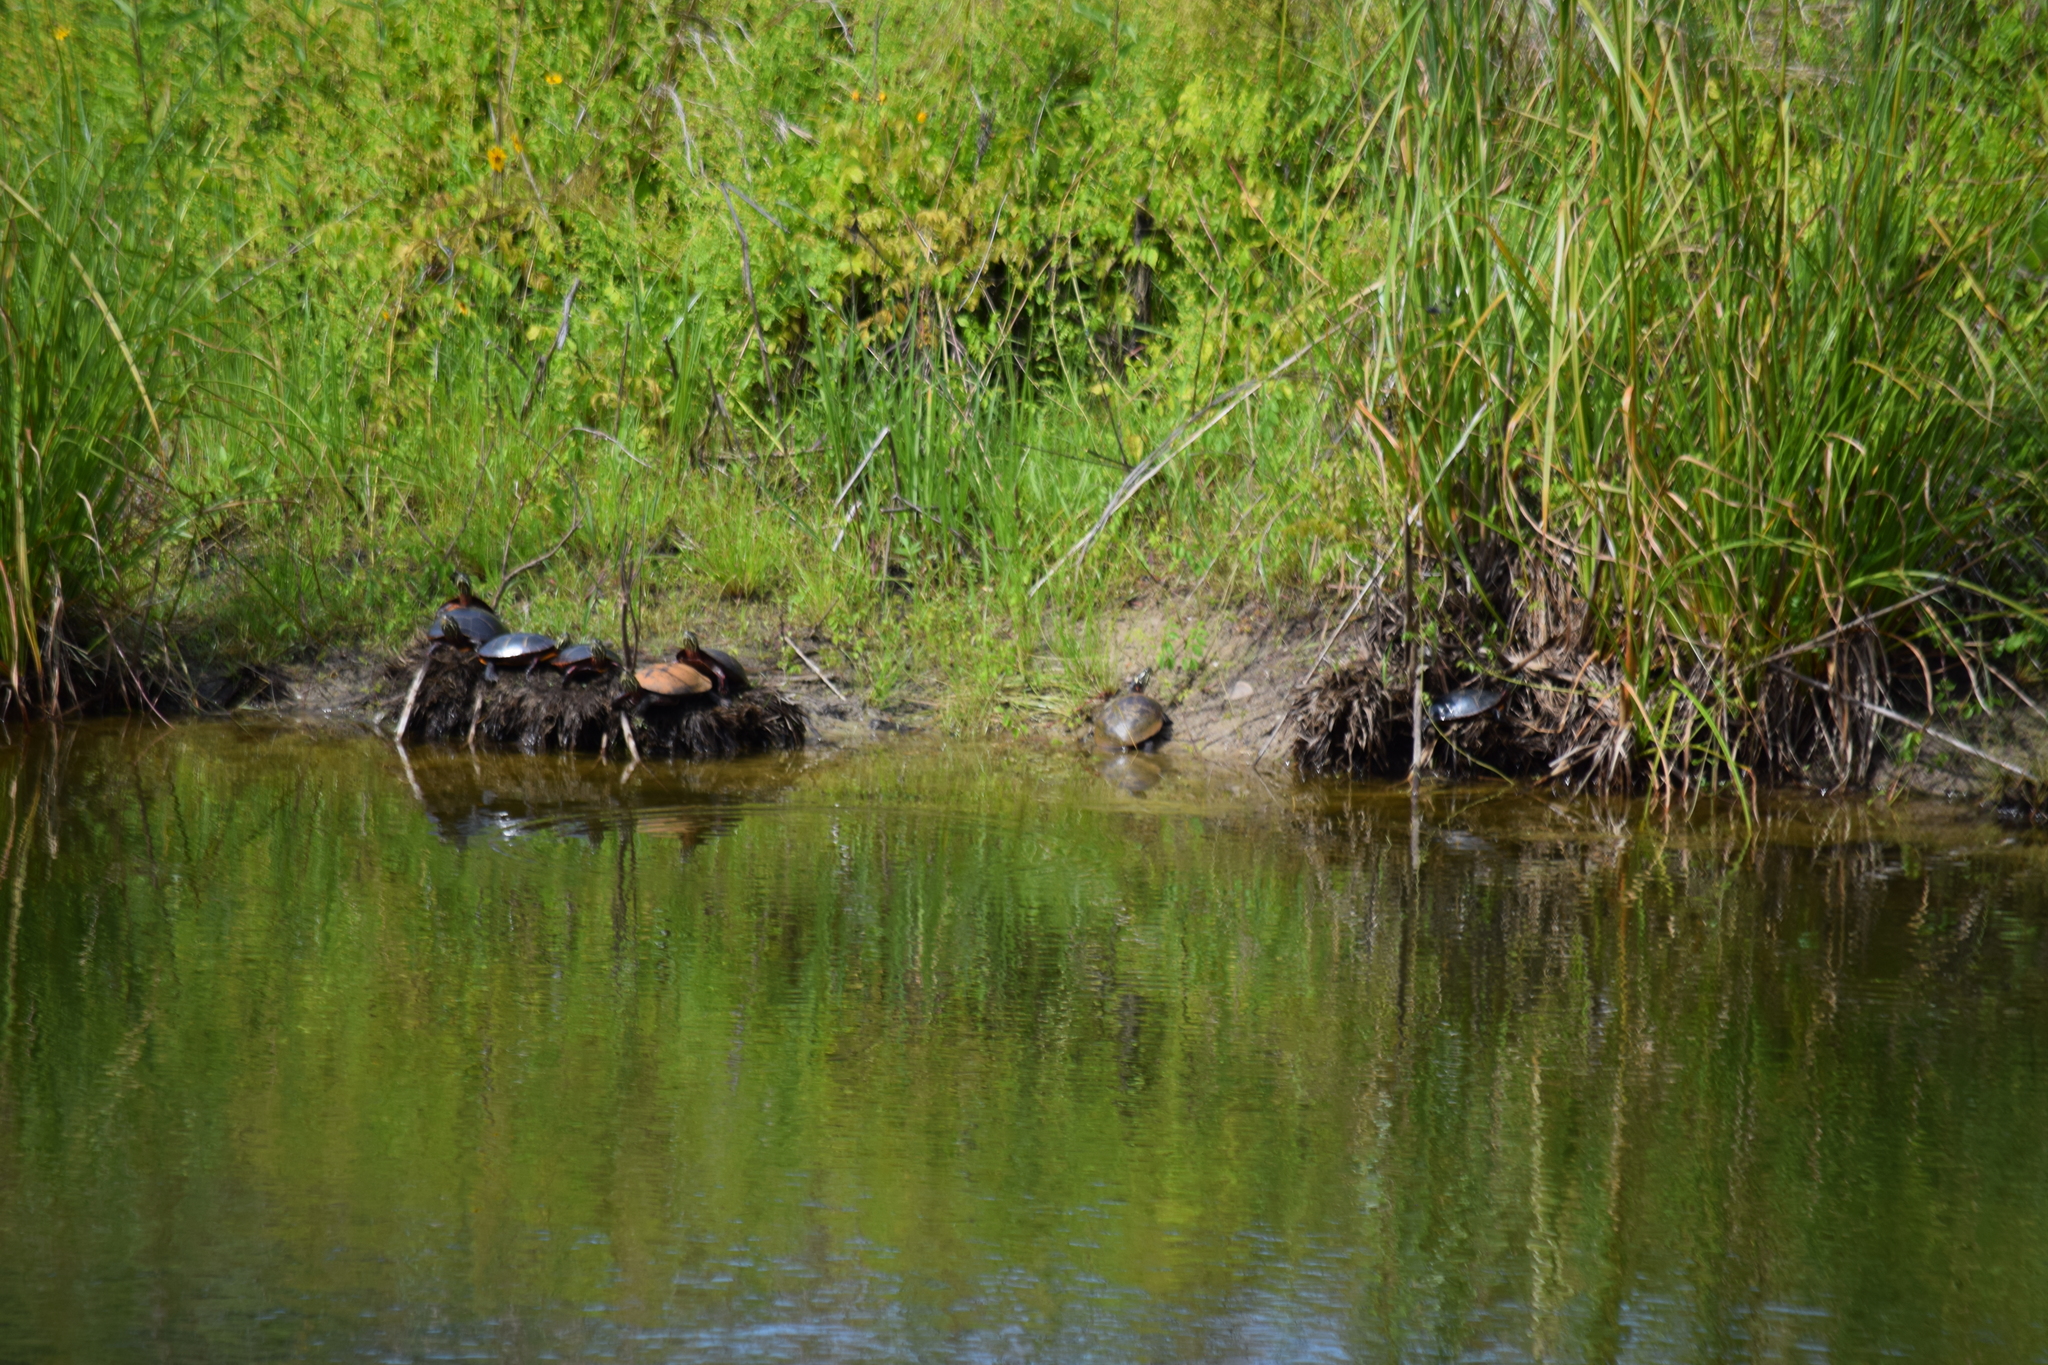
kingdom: Animalia
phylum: Chordata
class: Testudines
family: Emydidae
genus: Chrysemys
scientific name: Chrysemys picta
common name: Painted turtle
